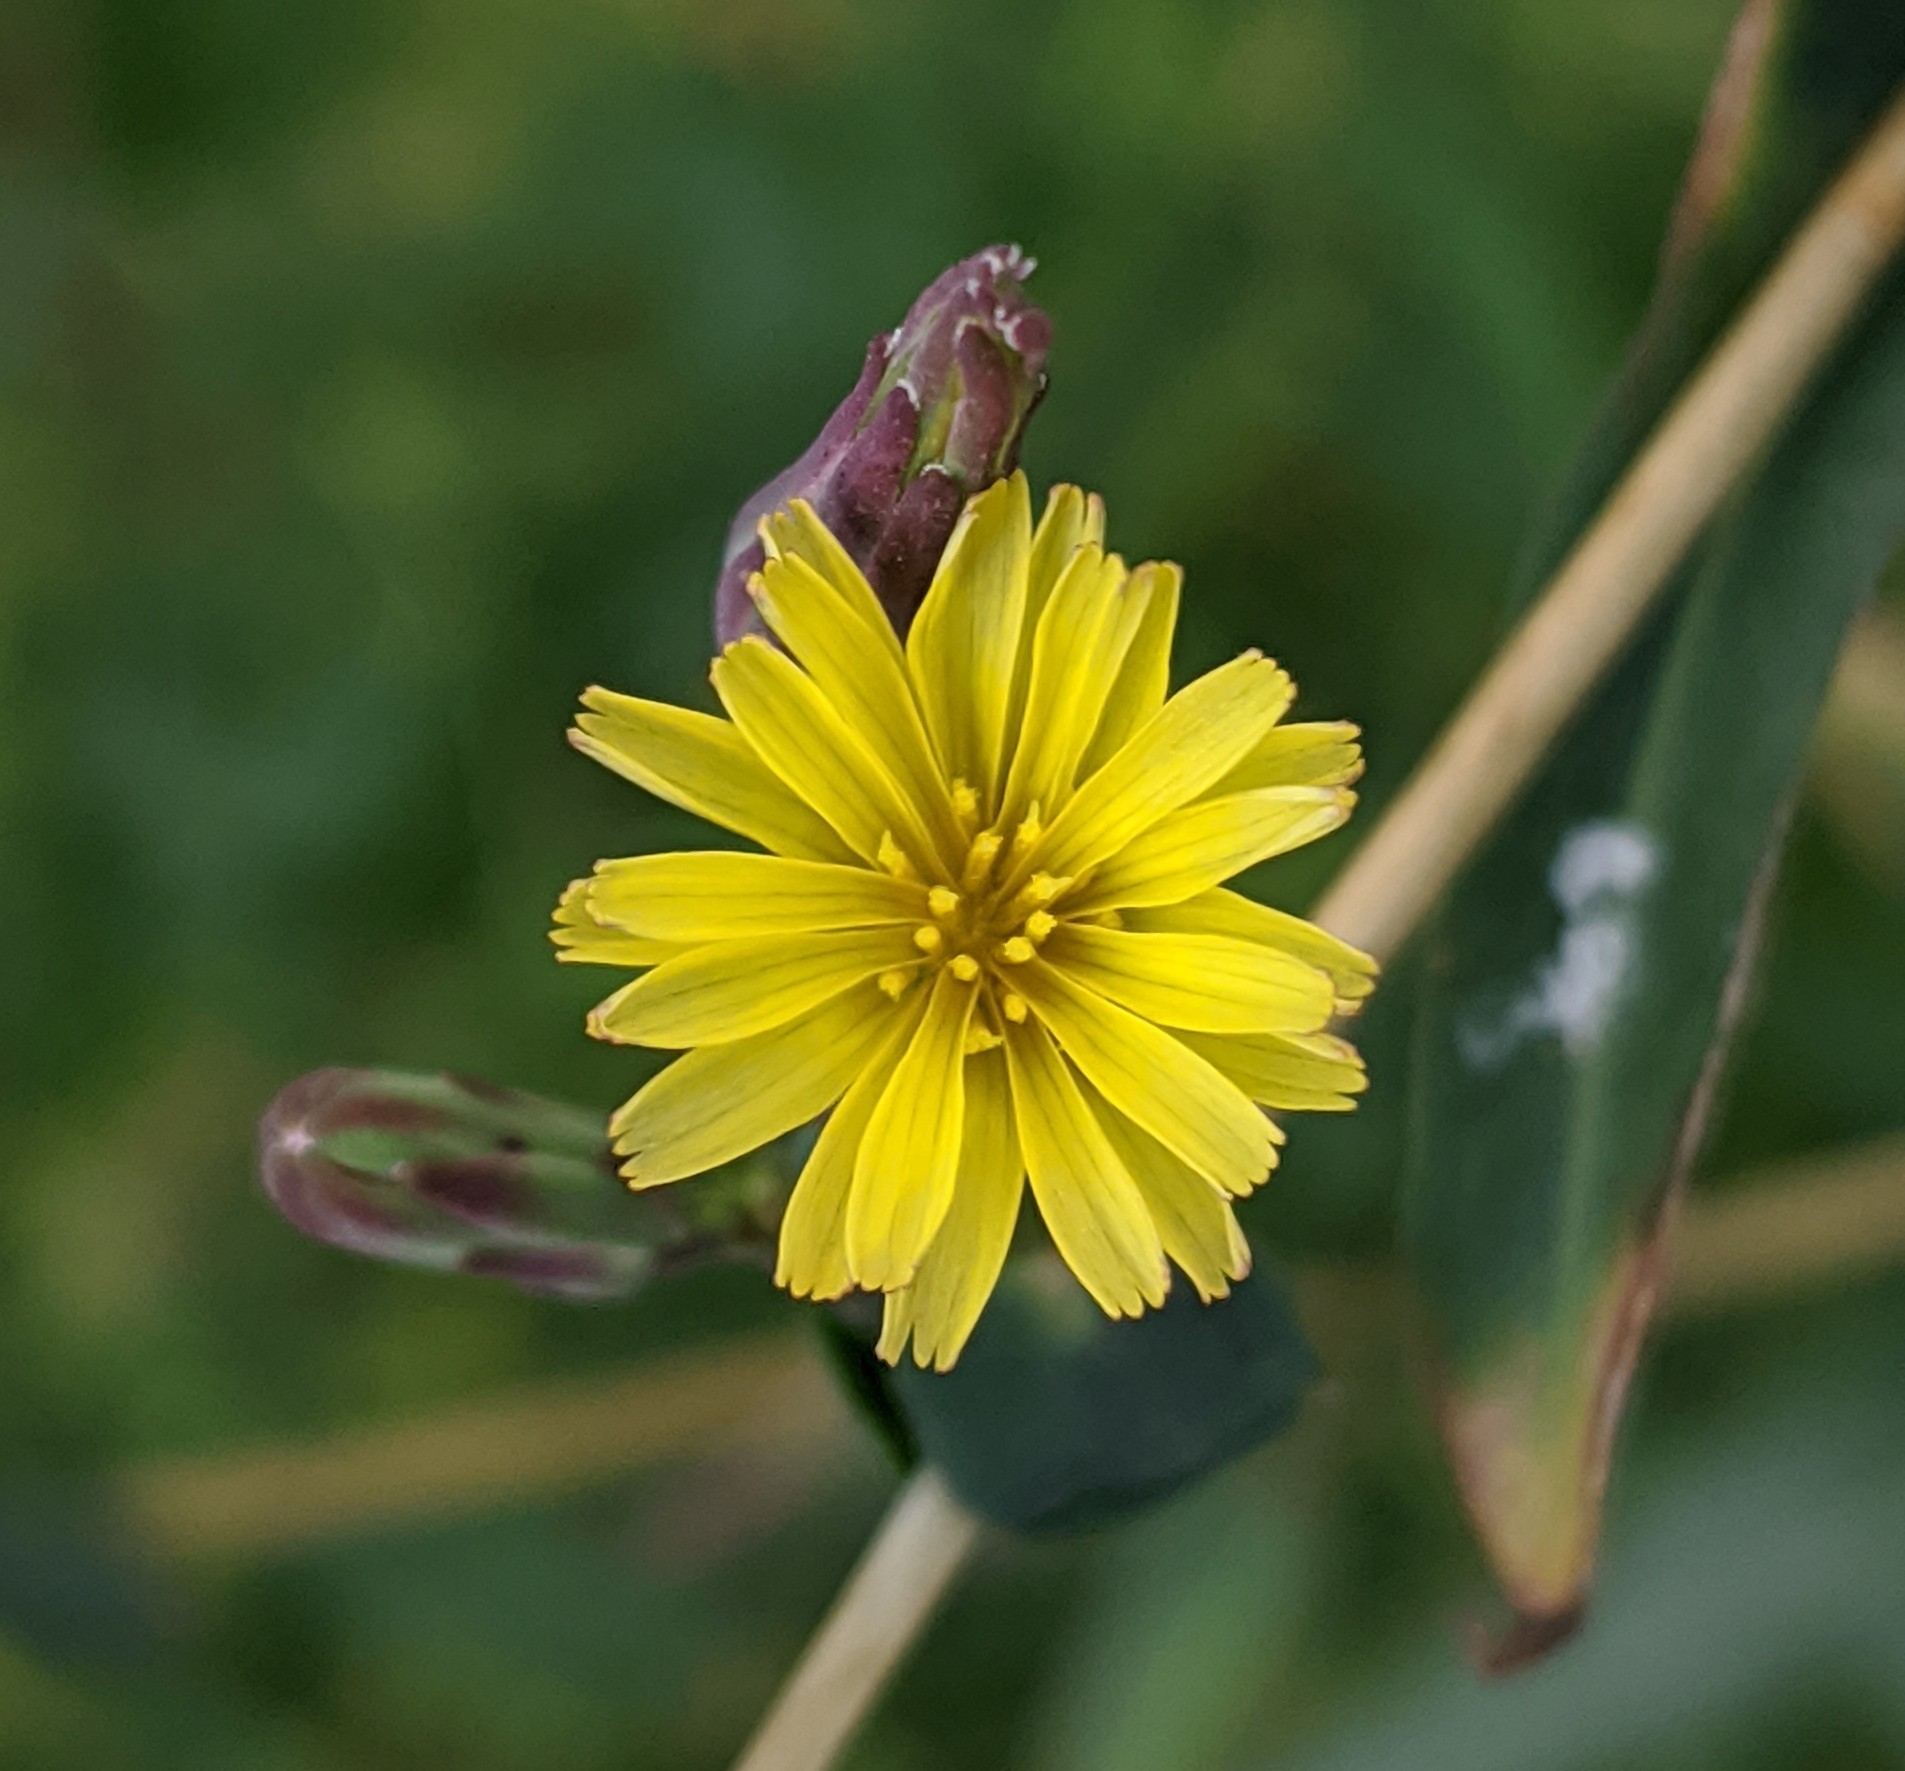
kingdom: Plantae
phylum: Tracheophyta
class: Magnoliopsida
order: Asterales
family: Asteraceae
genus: Lactuca
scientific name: Lactuca serriola
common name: Prickly lettuce
